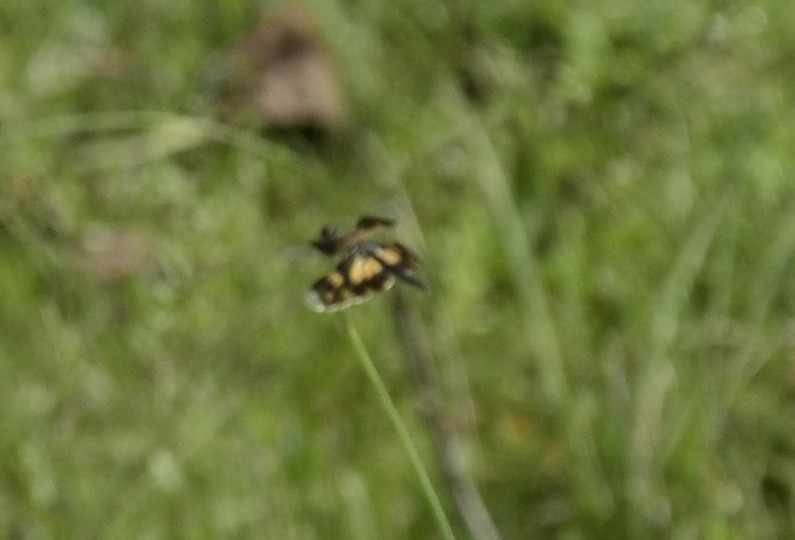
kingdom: Animalia
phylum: Arthropoda
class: Insecta
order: Odonata
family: Libellulidae
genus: Rhyothemis
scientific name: Rhyothemis variegata
